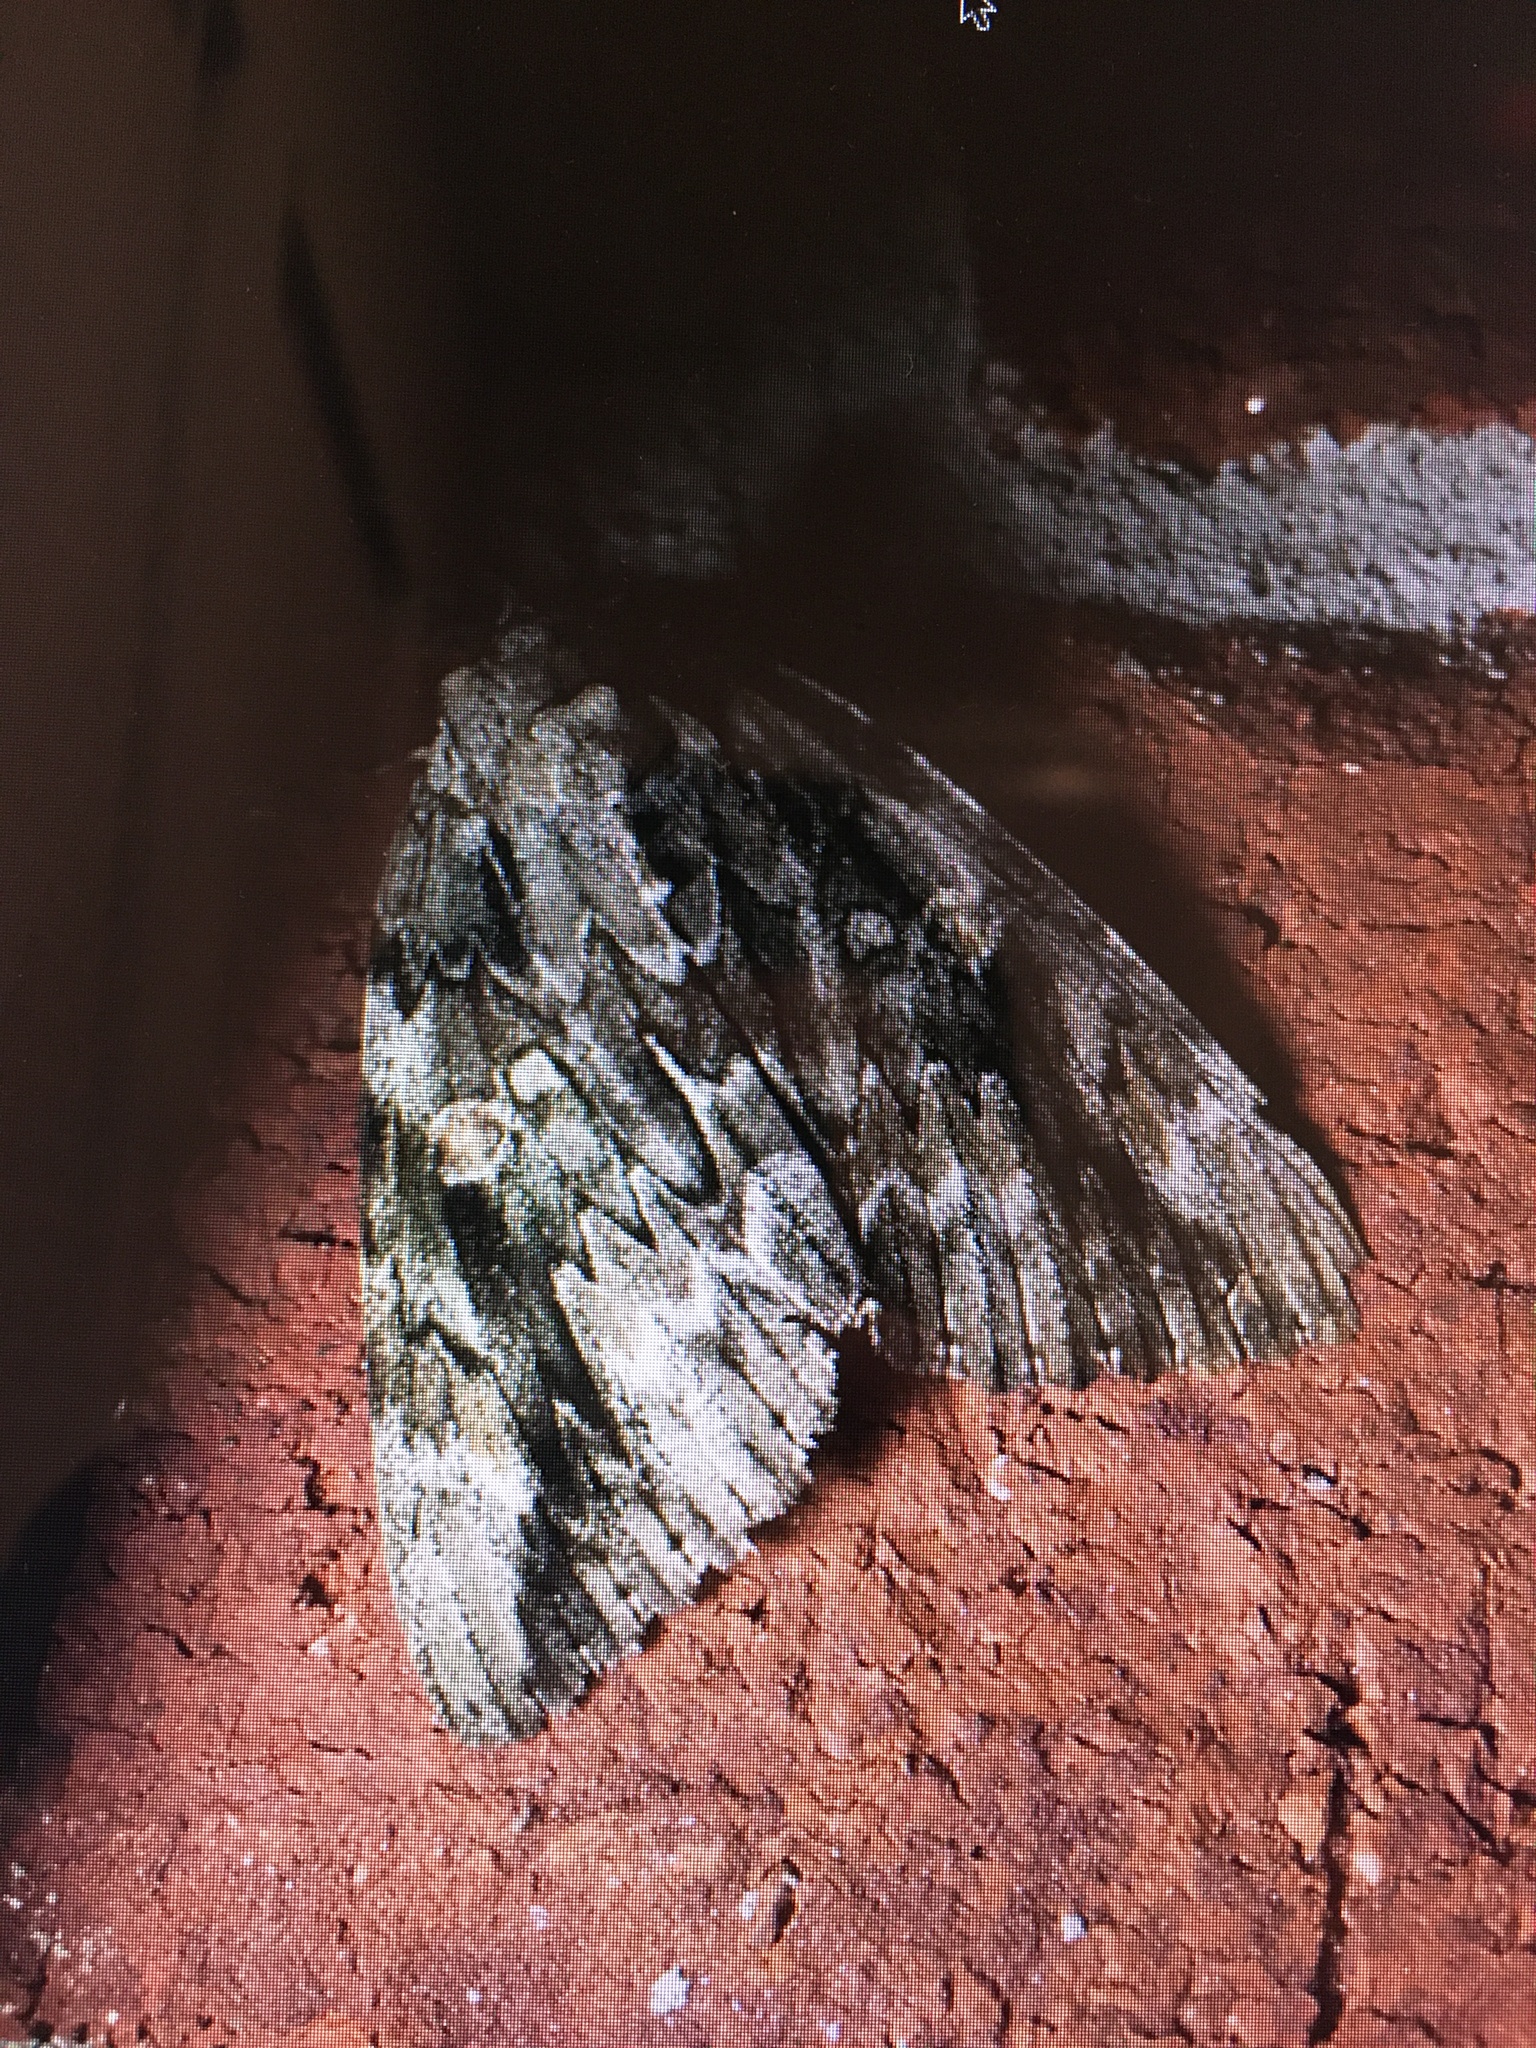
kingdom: Animalia
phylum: Arthropoda
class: Insecta
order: Lepidoptera
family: Erebidae
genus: Catocala
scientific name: Catocala maestosa
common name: Sad underwing
